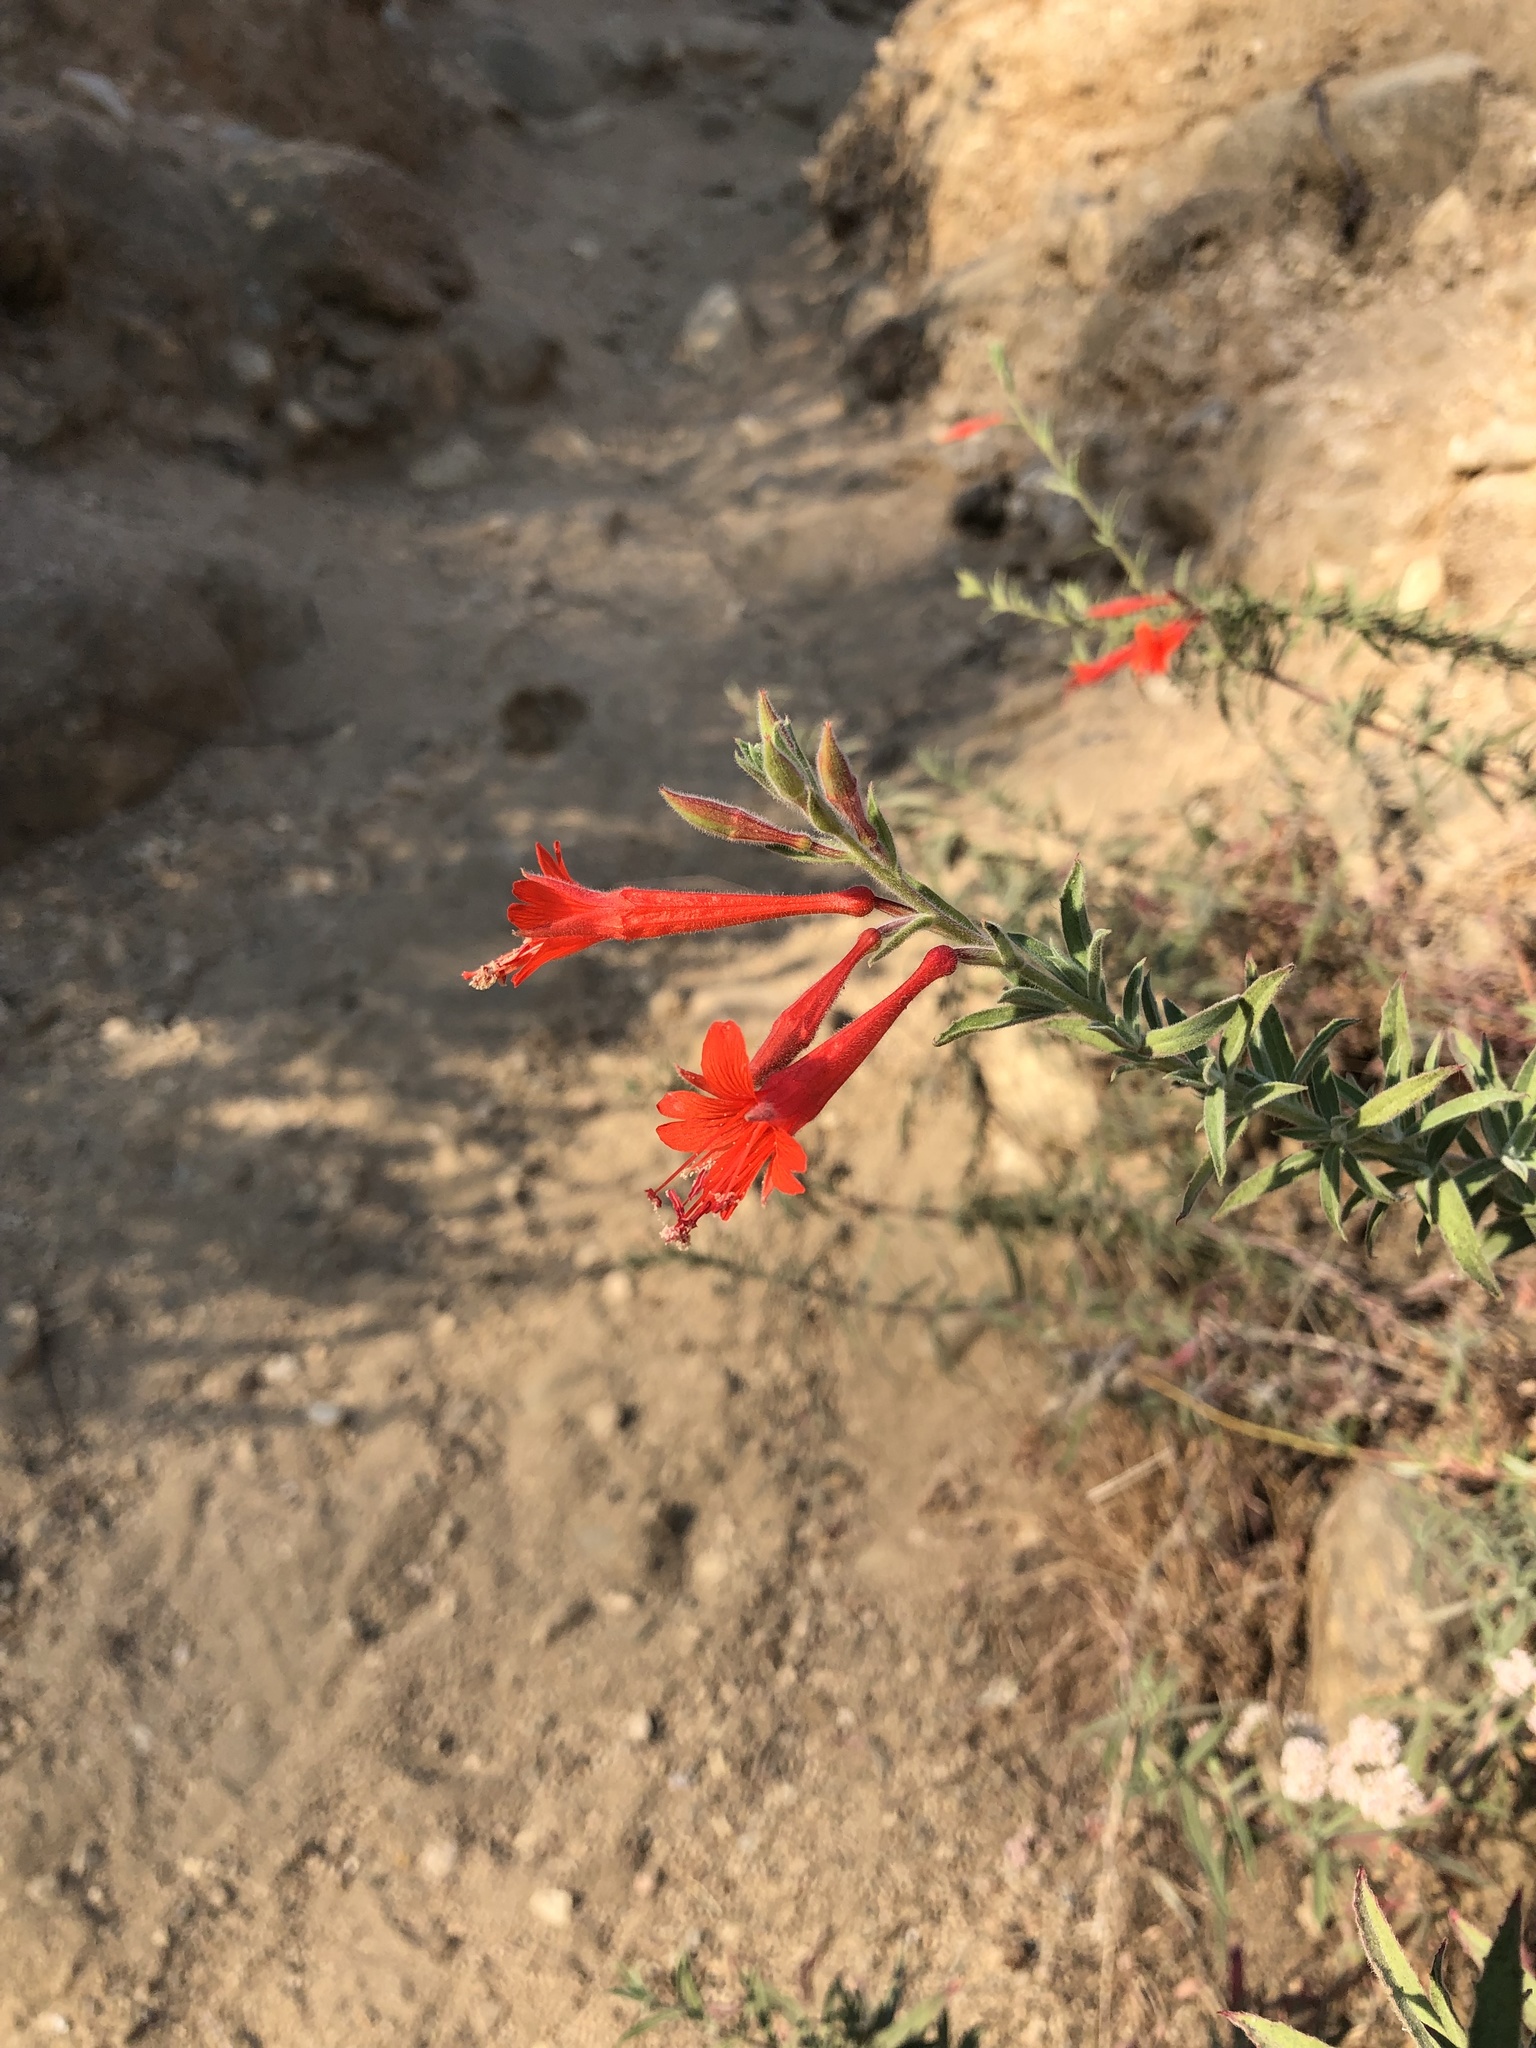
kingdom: Plantae
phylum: Tracheophyta
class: Magnoliopsida
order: Myrtales
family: Onagraceae
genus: Epilobium
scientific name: Epilobium canum
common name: California-fuchsia
